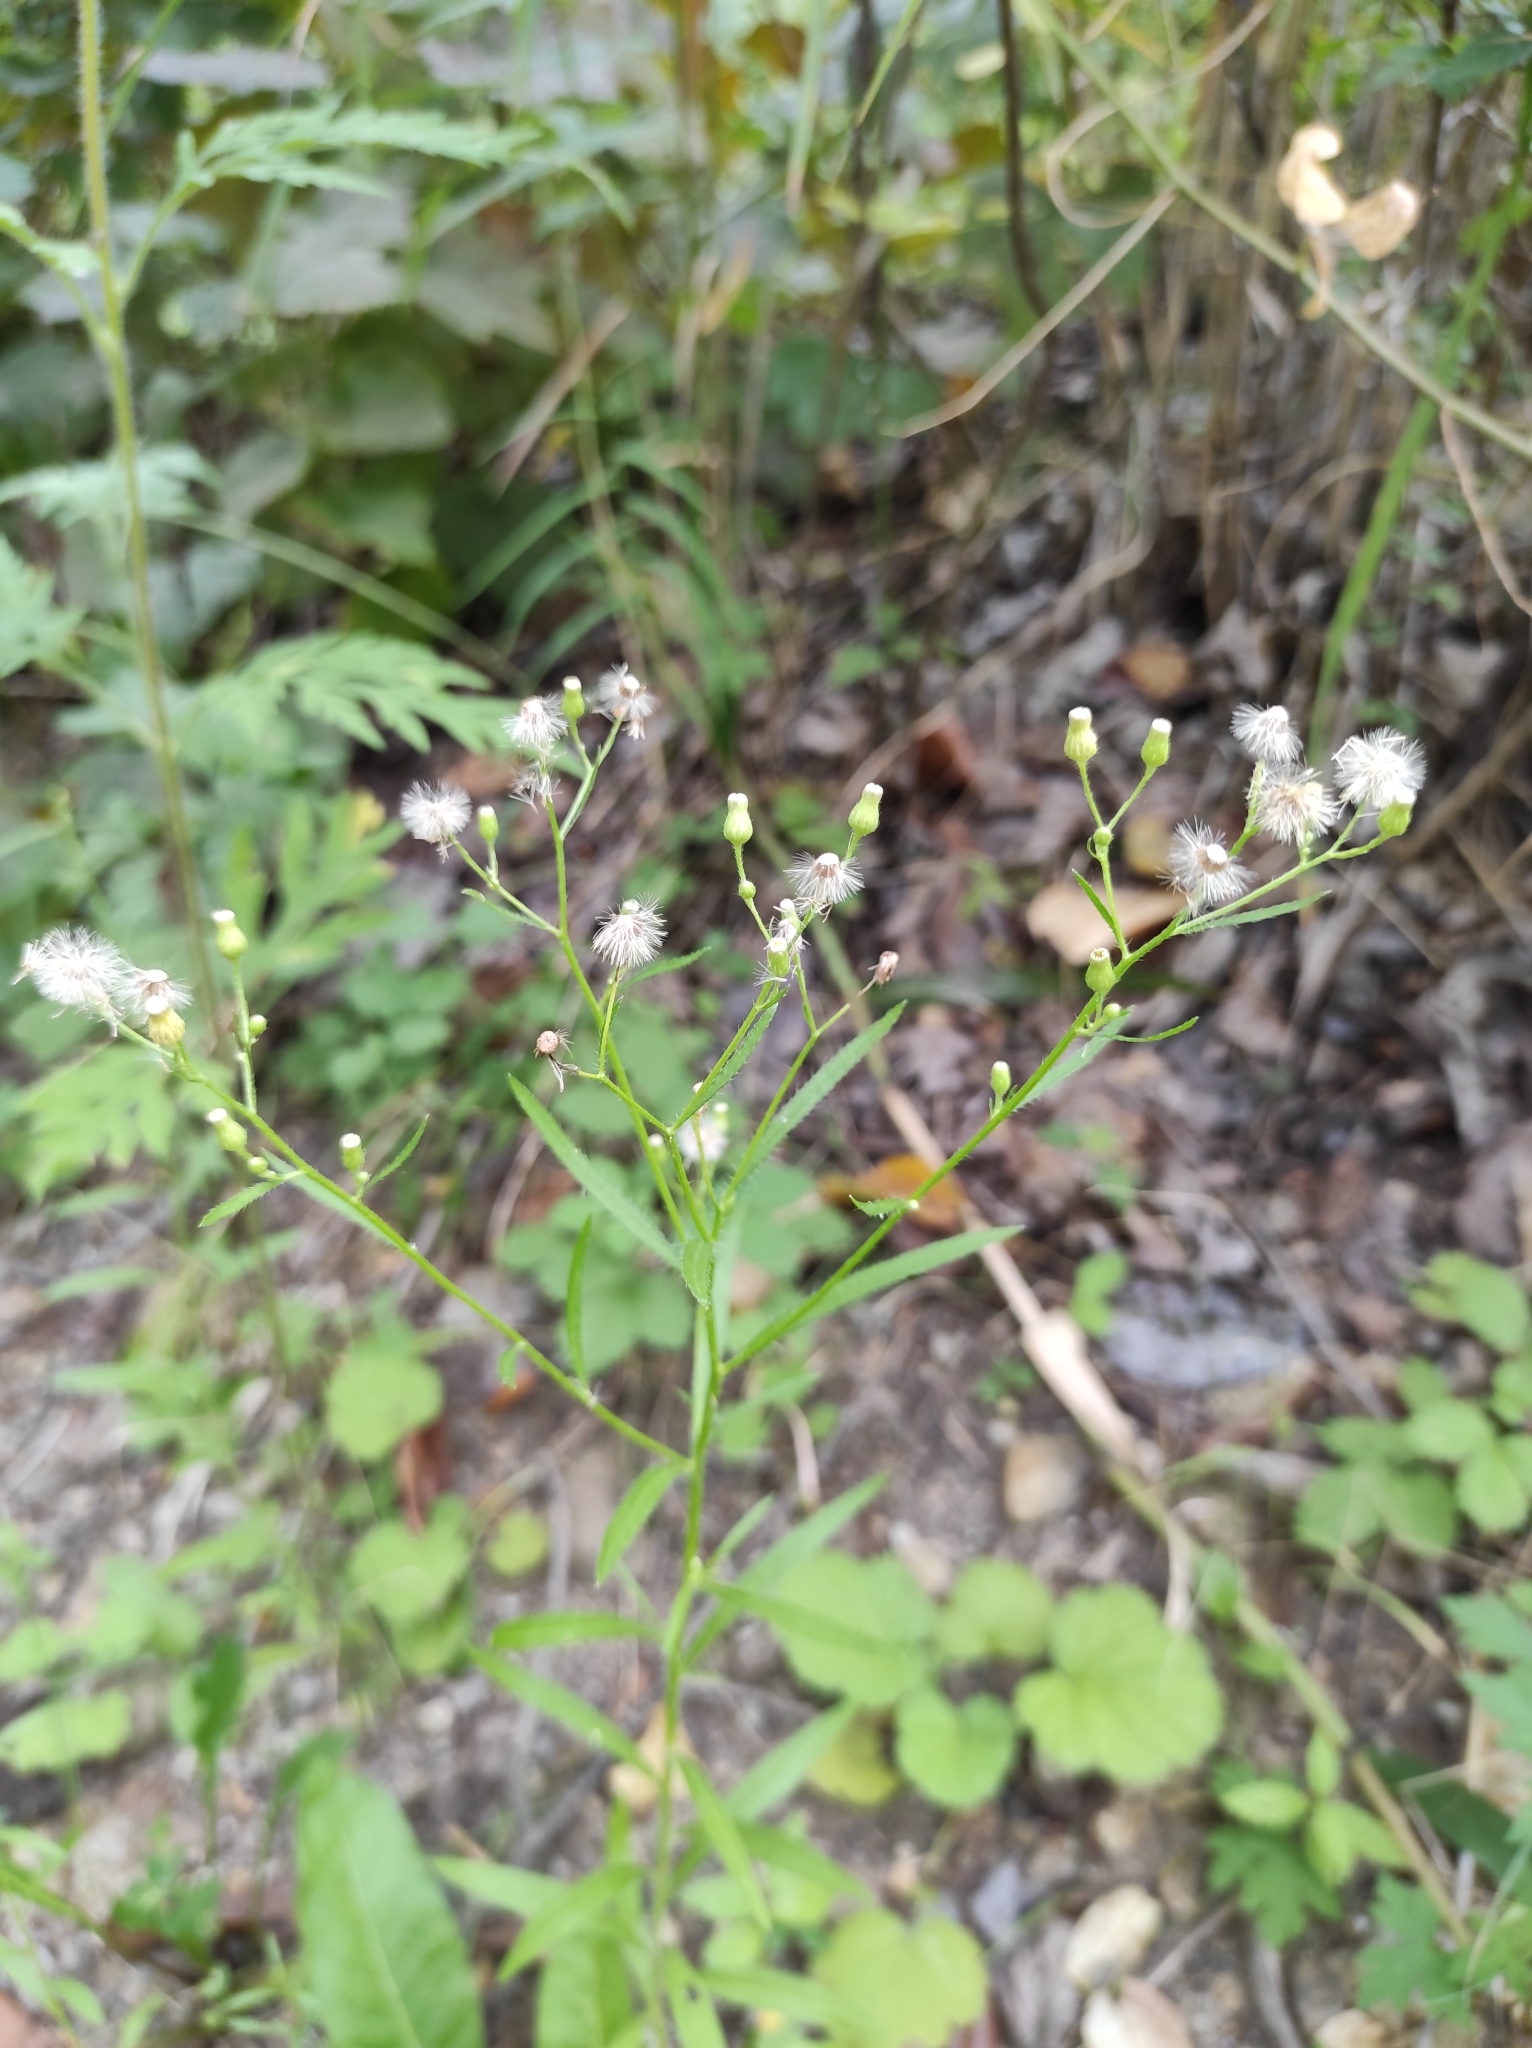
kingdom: Plantae
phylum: Tracheophyta
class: Magnoliopsida
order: Asterales
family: Asteraceae
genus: Erigeron
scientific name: Erigeron canadensis
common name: Canadian fleabane
